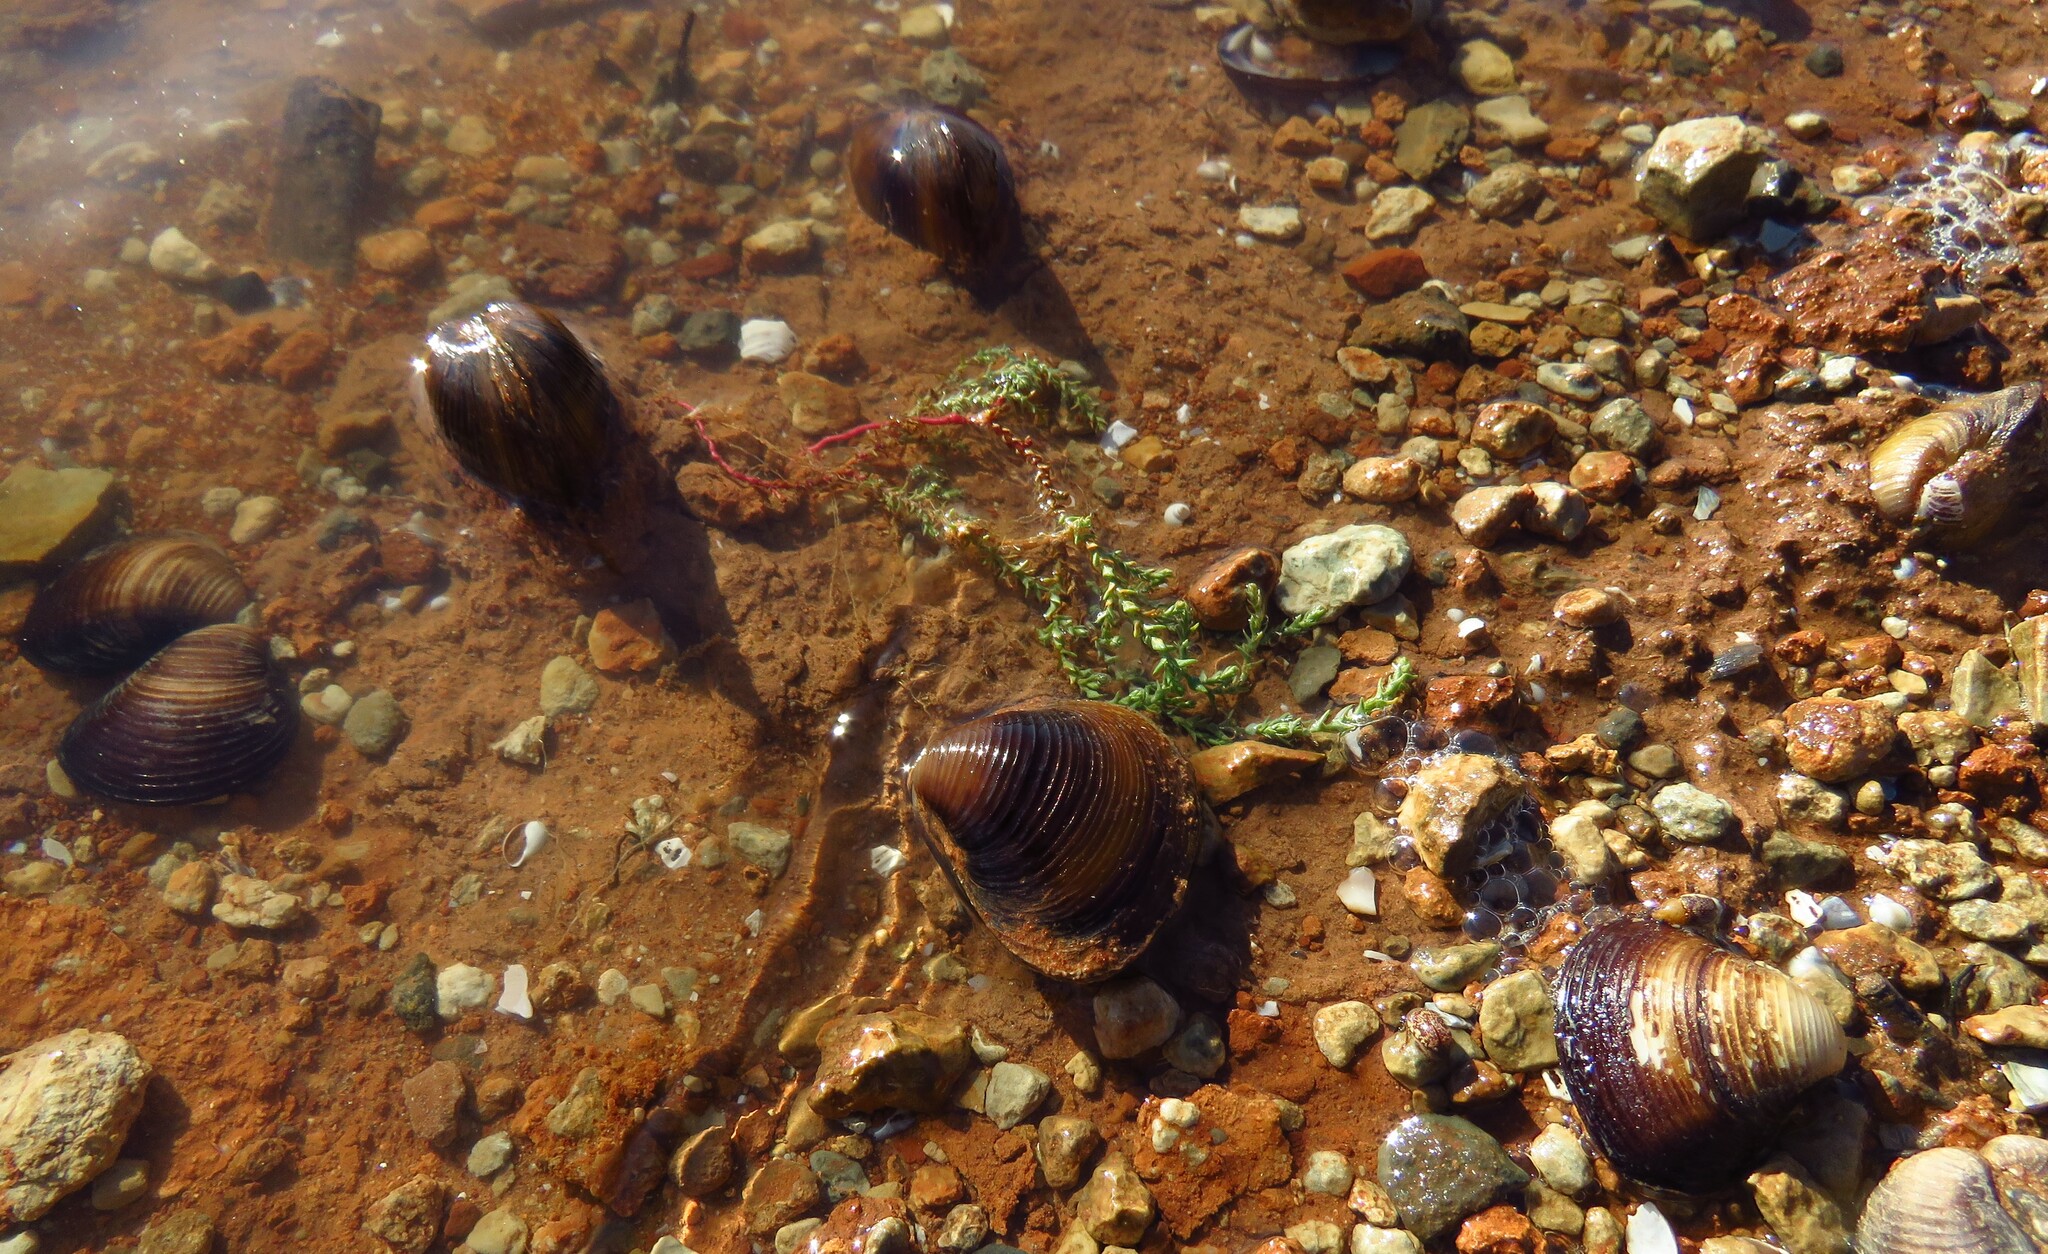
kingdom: Animalia
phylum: Mollusca
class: Bivalvia
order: Venerida
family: Cyrenidae
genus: Corbicula
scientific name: Corbicula fluminea
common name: Asian clam
